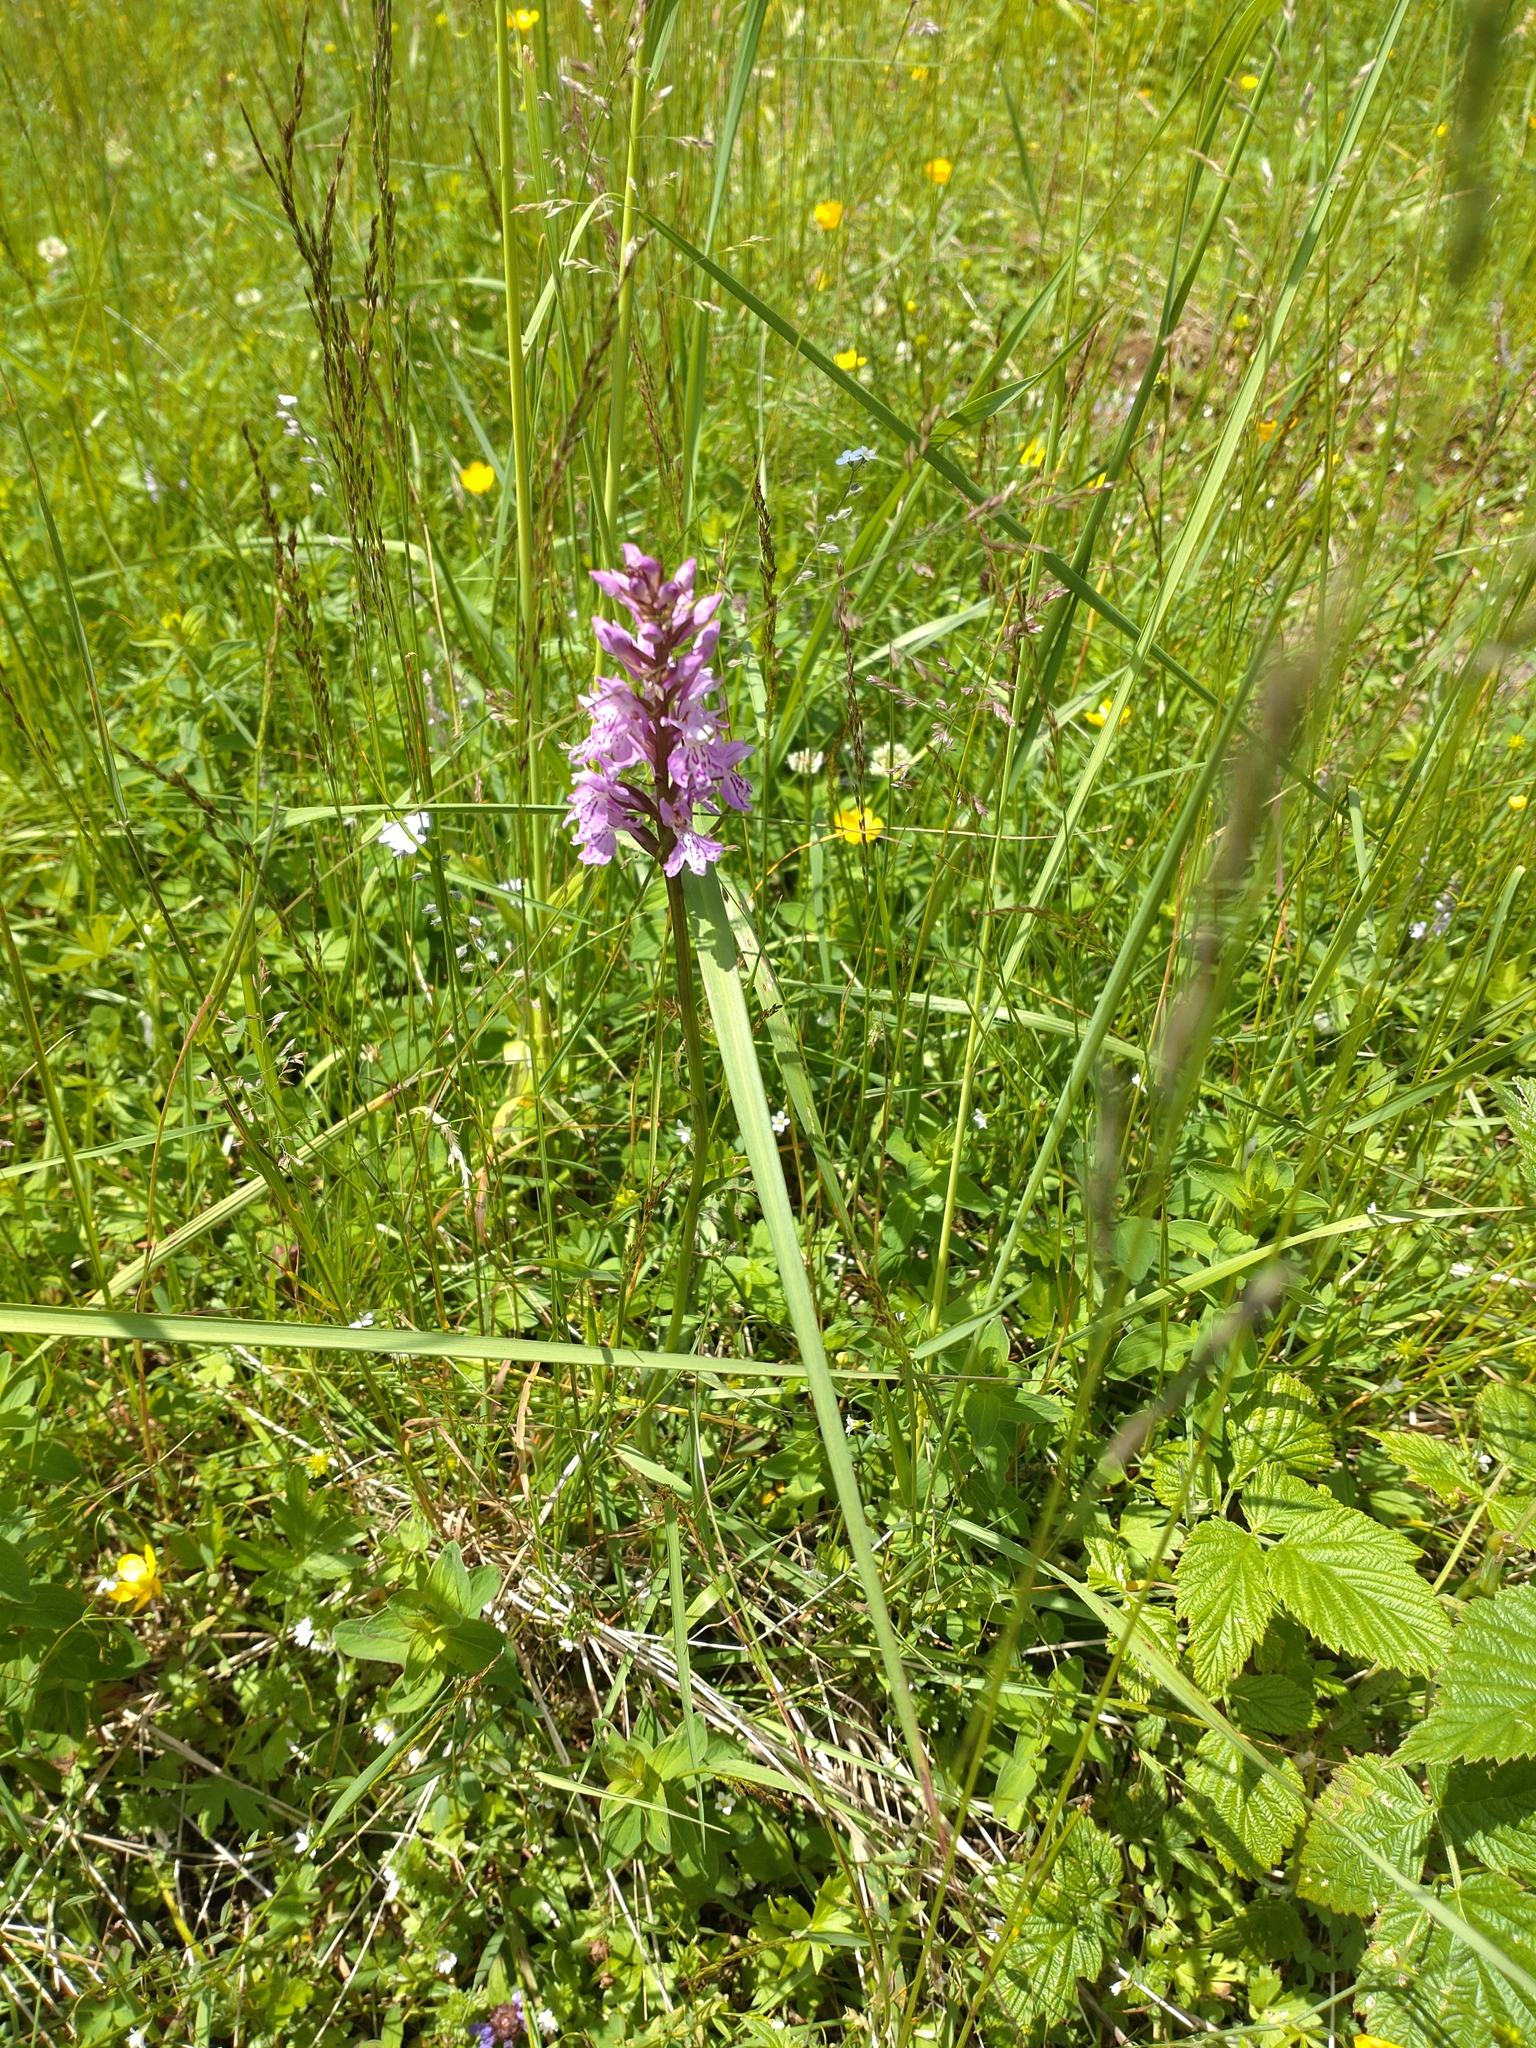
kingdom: Plantae
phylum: Tracheophyta
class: Liliopsida
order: Asparagales
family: Orchidaceae
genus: Dactylorhiza
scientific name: Dactylorhiza maculata
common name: Heath spotted-orchid
